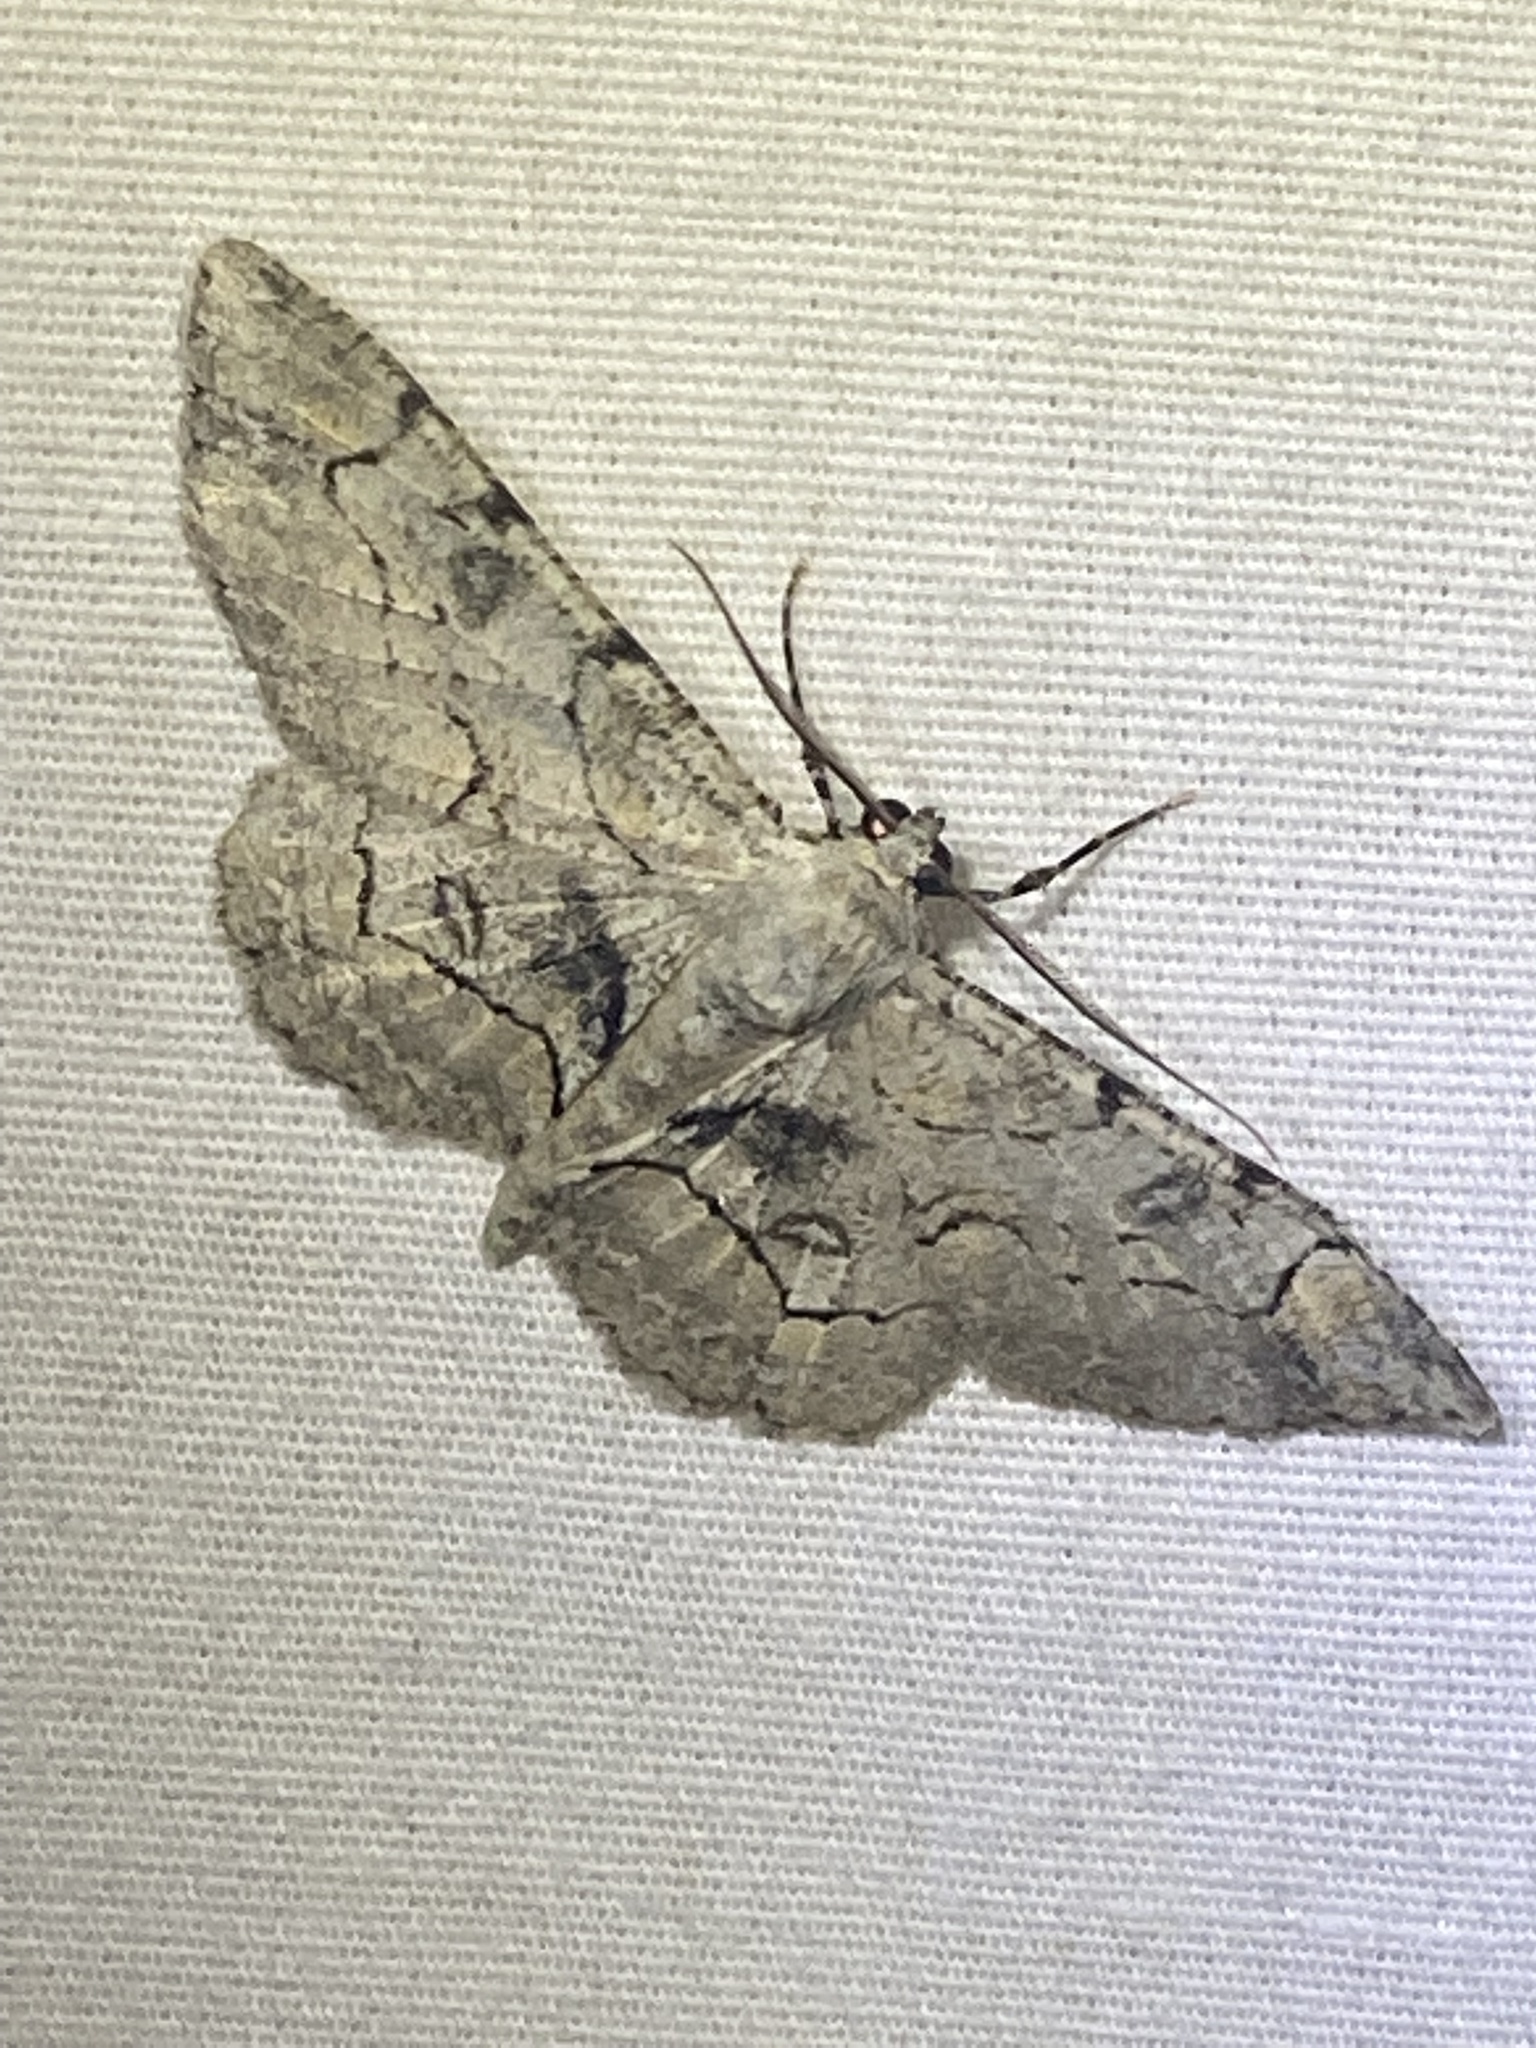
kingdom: Animalia
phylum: Arthropoda
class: Insecta
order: Lepidoptera
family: Geometridae
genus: Iridopsis
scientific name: Iridopsis larvaria
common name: Bent-line gray
